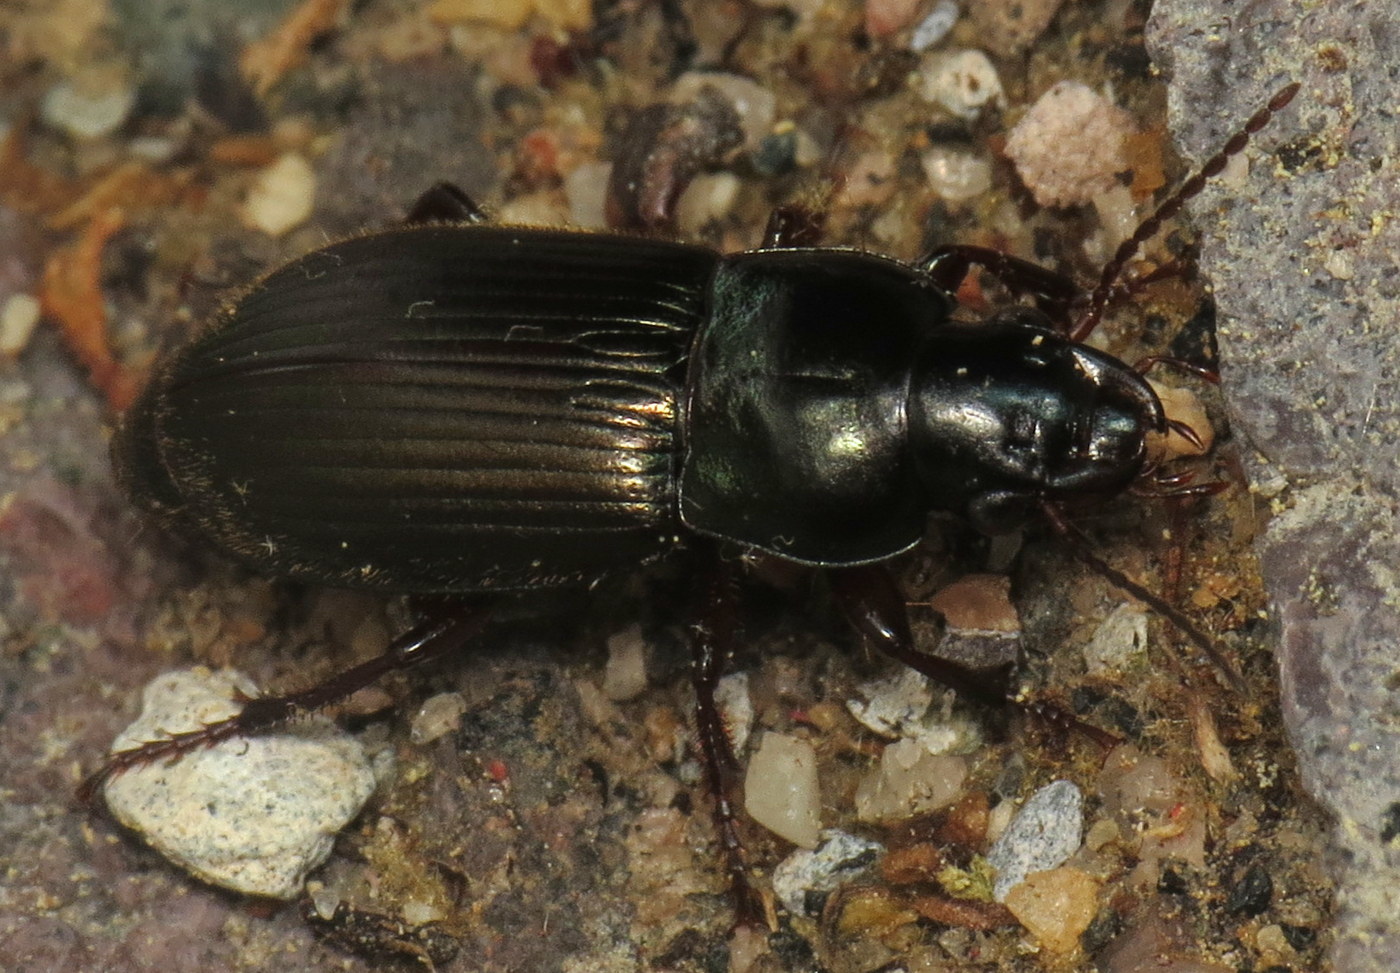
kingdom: Animalia
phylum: Arthropoda
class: Insecta
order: Coleoptera
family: Carabidae
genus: Harpalus
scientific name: Harpalus affinis
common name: Polychrome harp ground beetle
